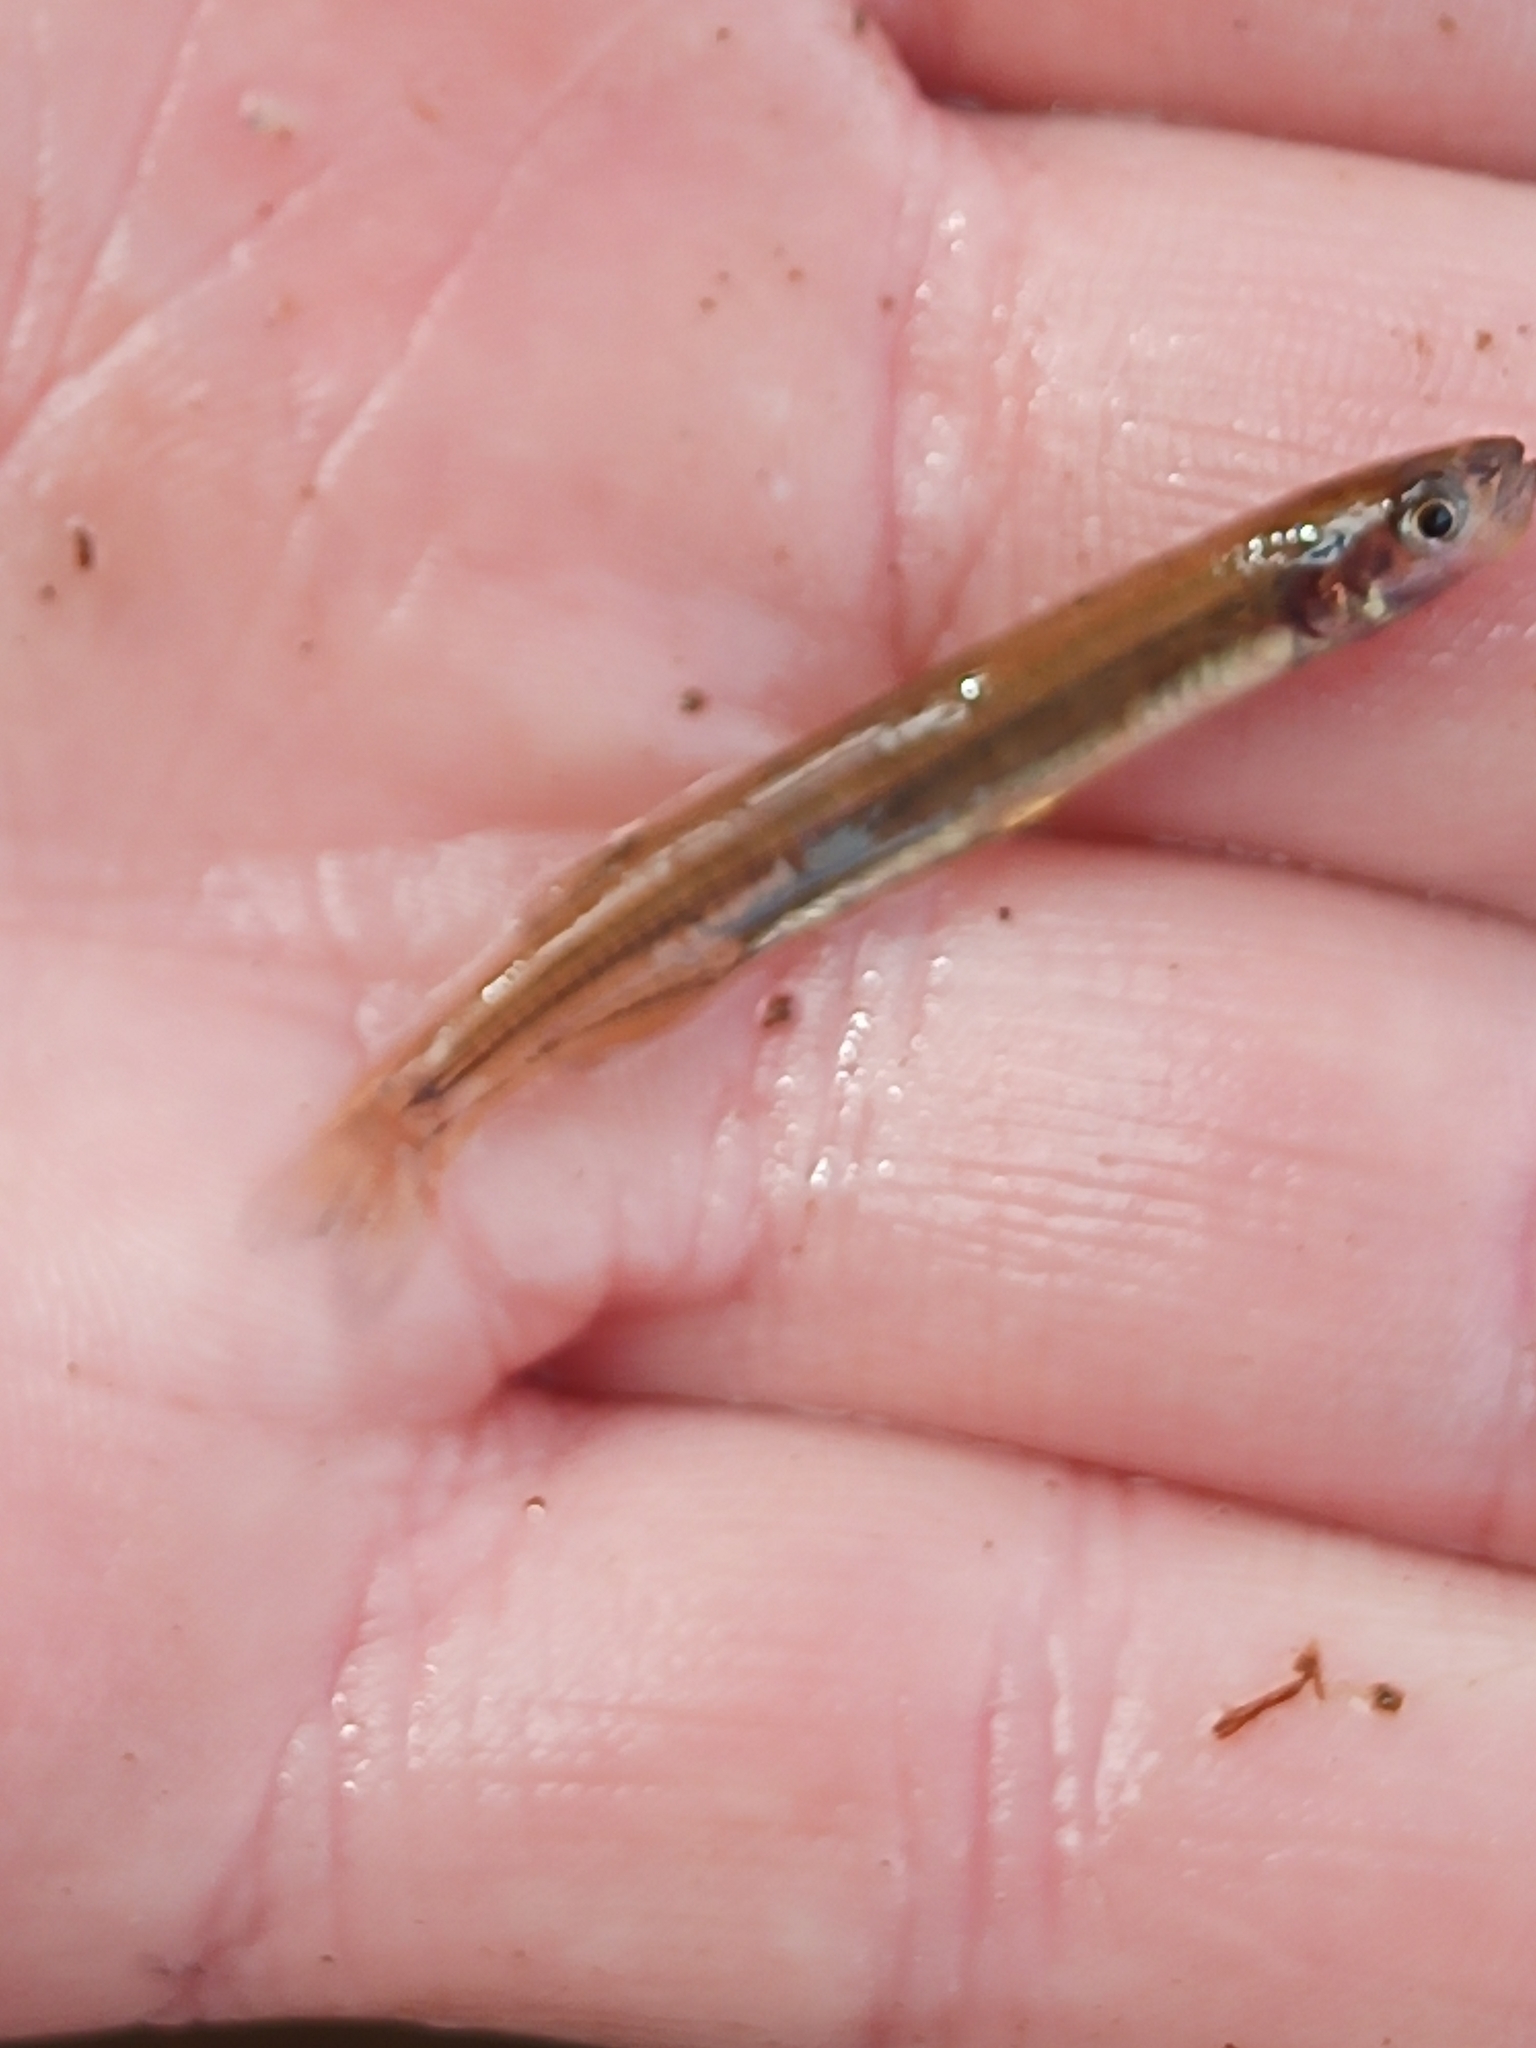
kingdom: Animalia
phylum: Chordata
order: Osmeriformes
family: Galaxiidae
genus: Galaxias
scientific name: Galaxias occidentalis
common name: Western minnow
